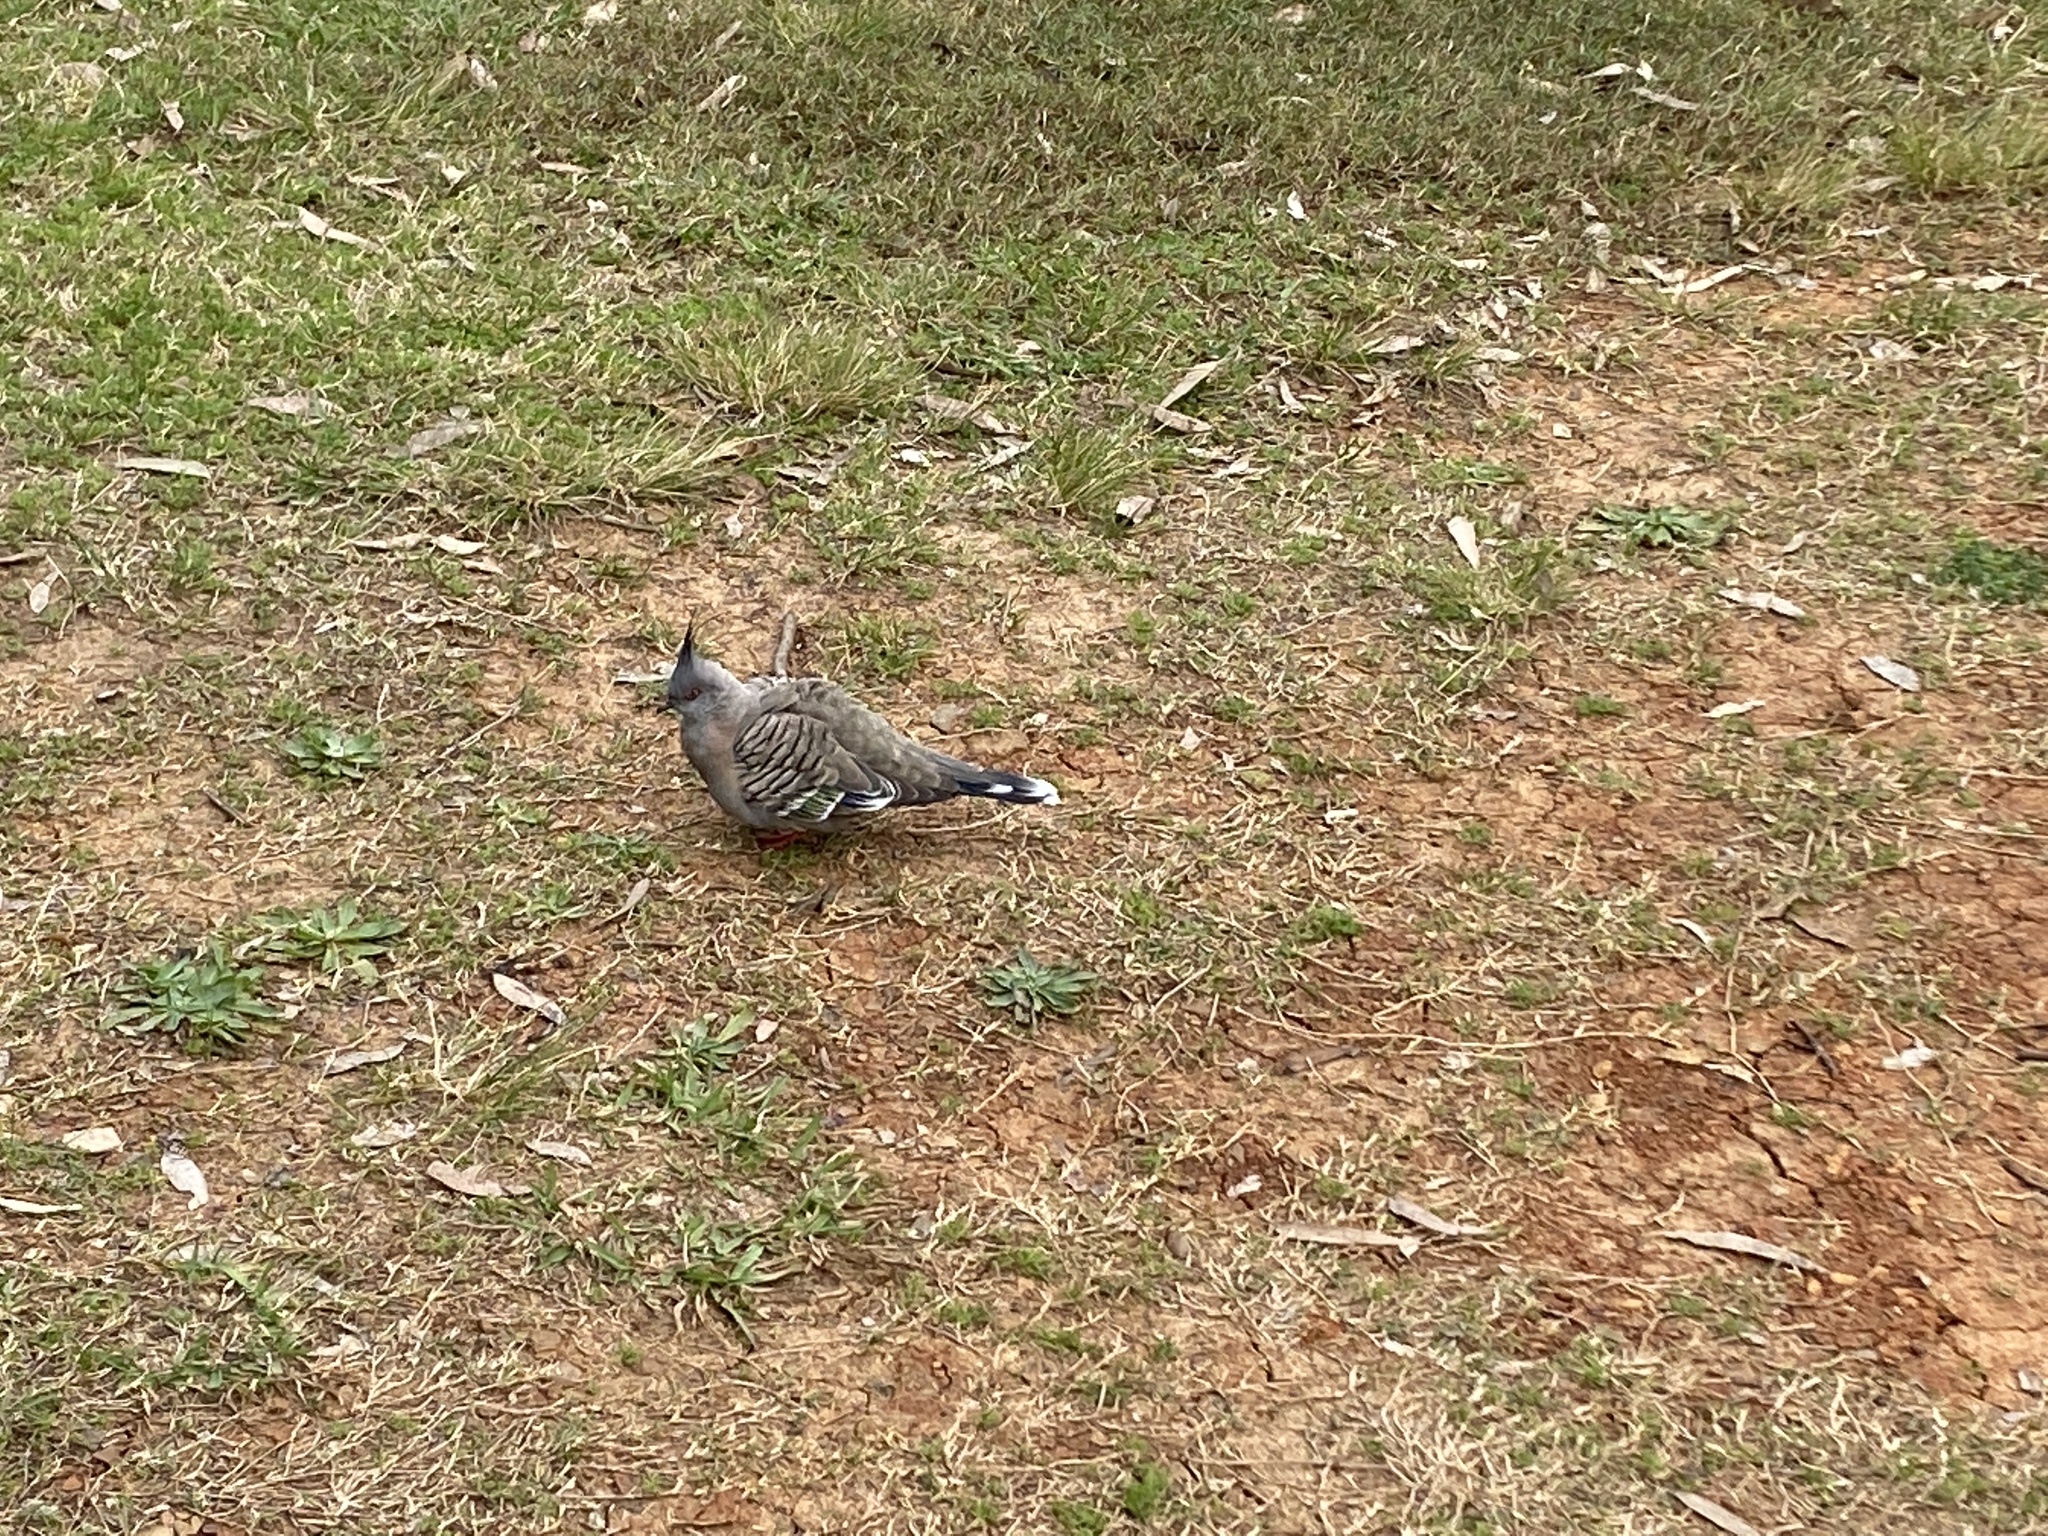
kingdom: Animalia
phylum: Chordata
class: Aves
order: Columbiformes
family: Columbidae
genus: Ocyphaps
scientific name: Ocyphaps lophotes
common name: Crested pigeon
